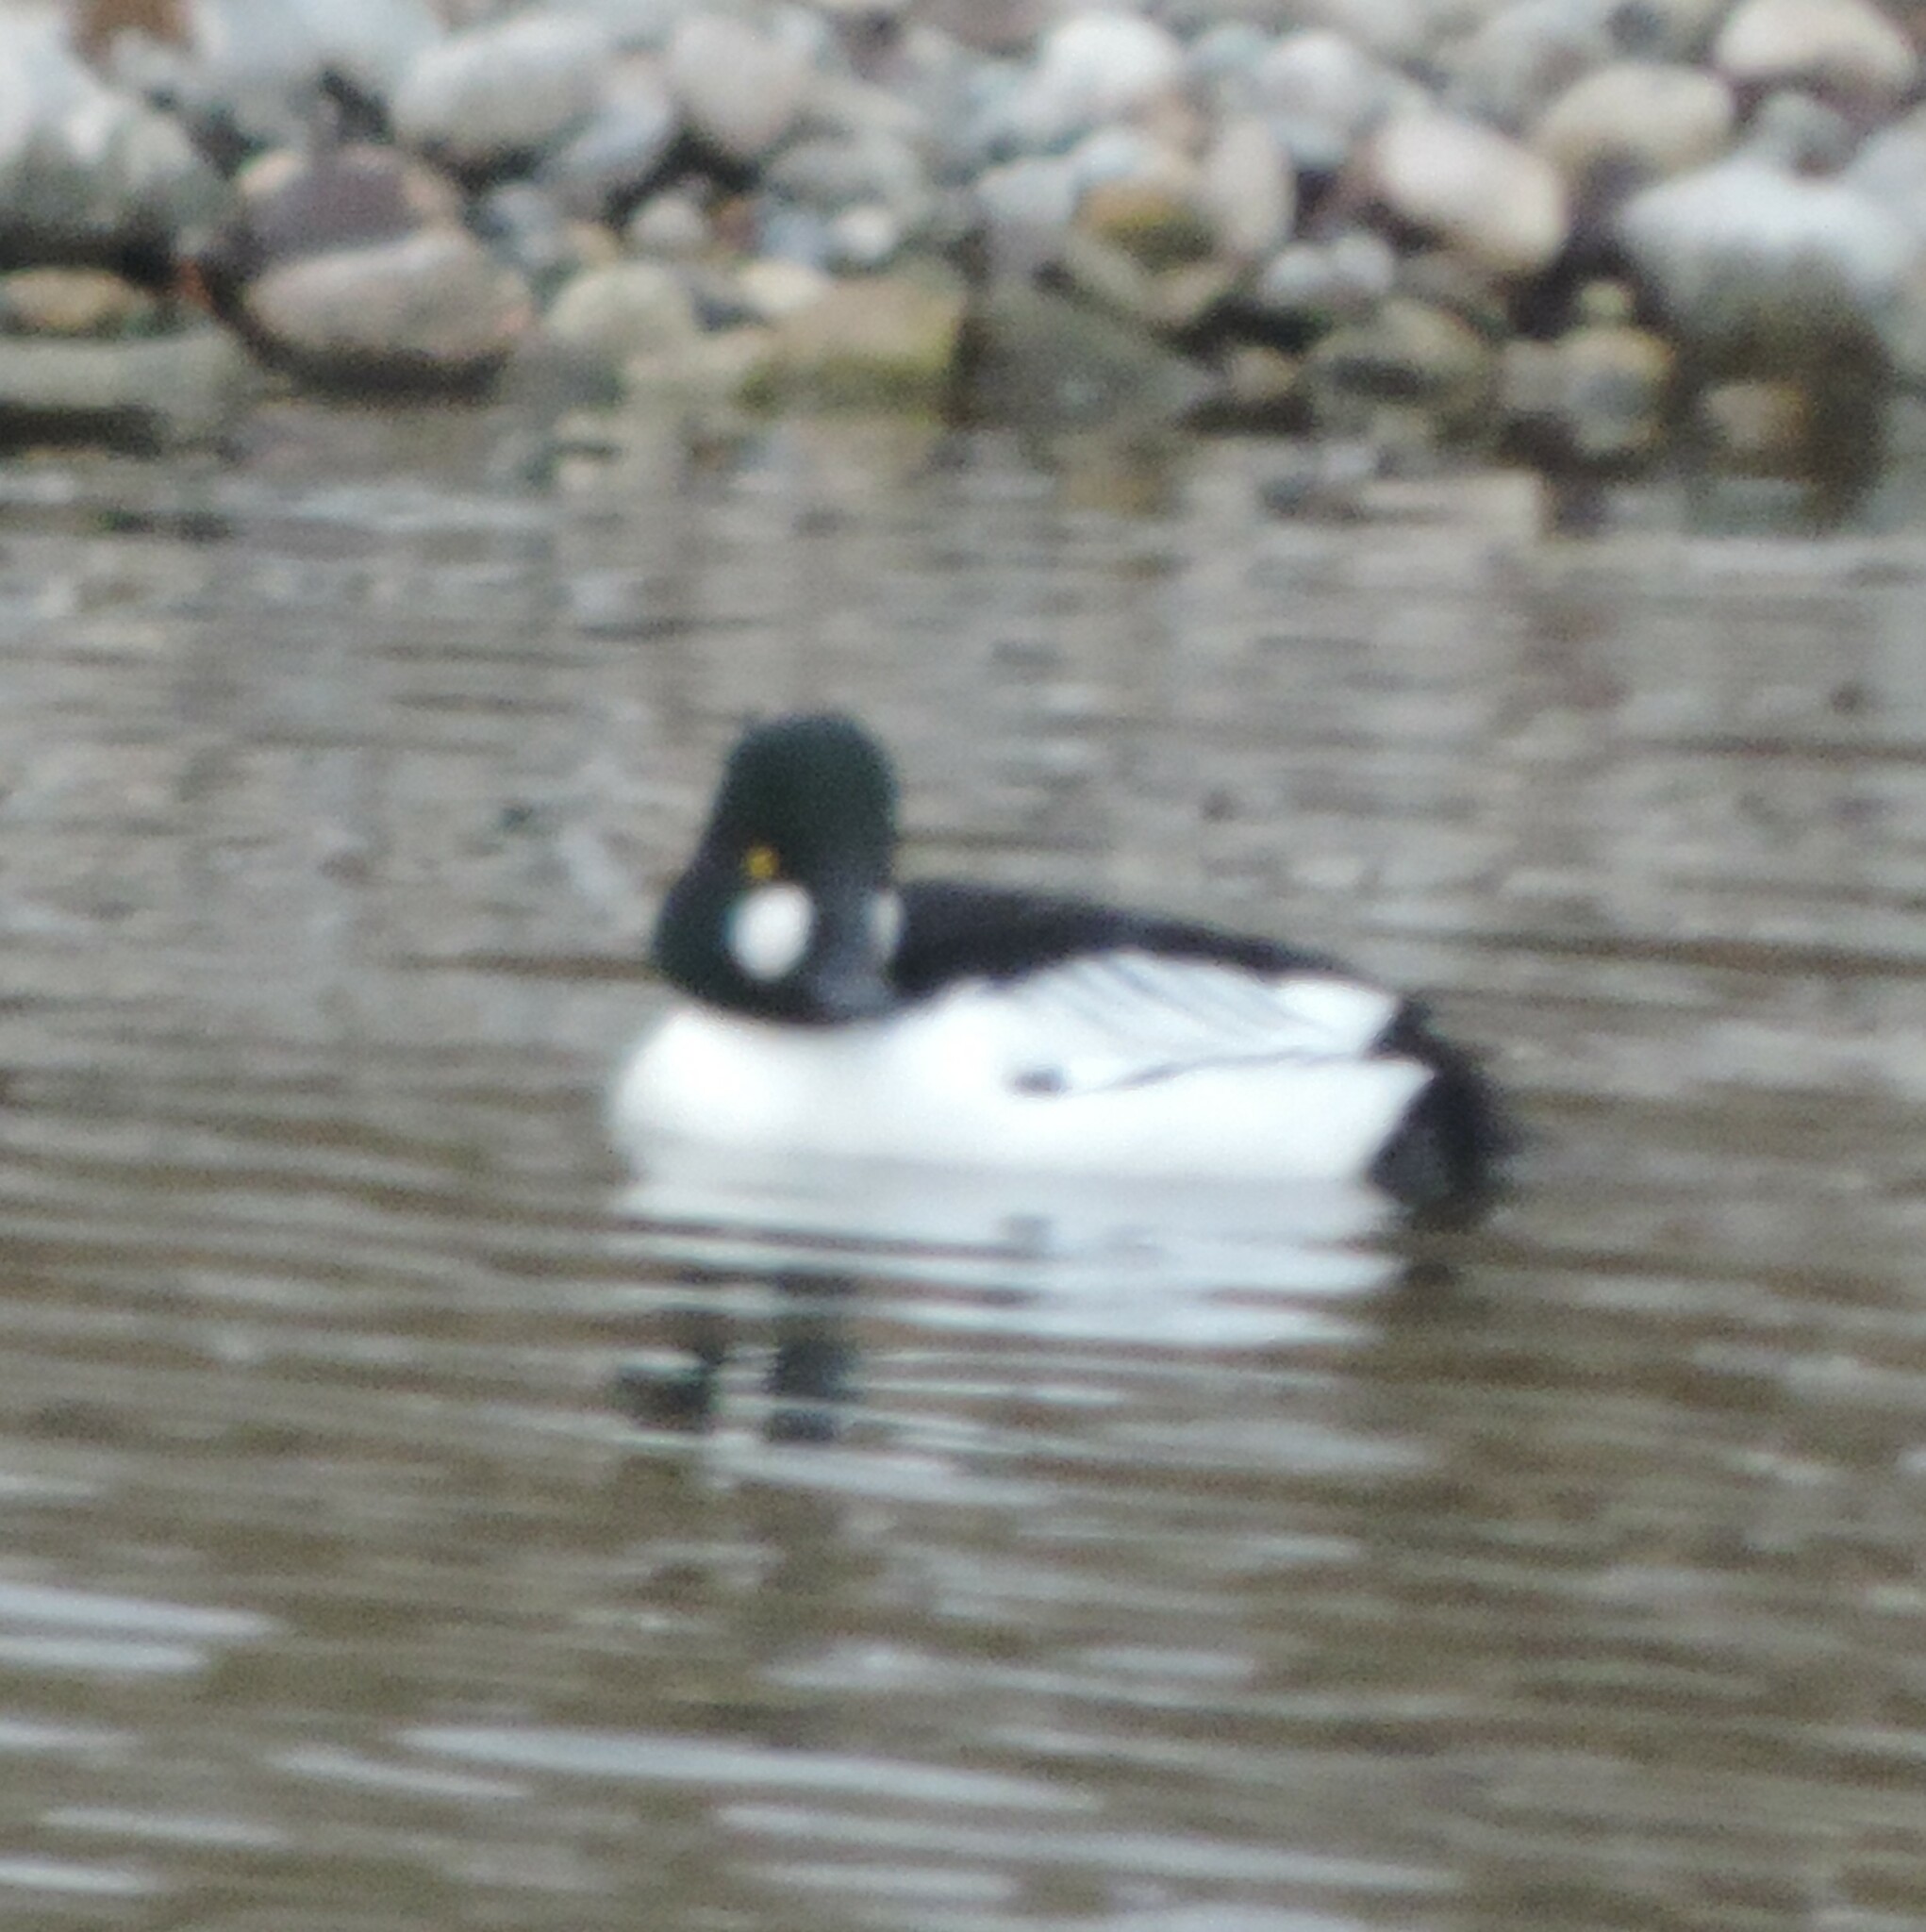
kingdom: Animalia
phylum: Chordata
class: Aves
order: Anseriformes
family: Anatidae
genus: Bucephala
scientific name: Bucephala clangula
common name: Common goldeneye
